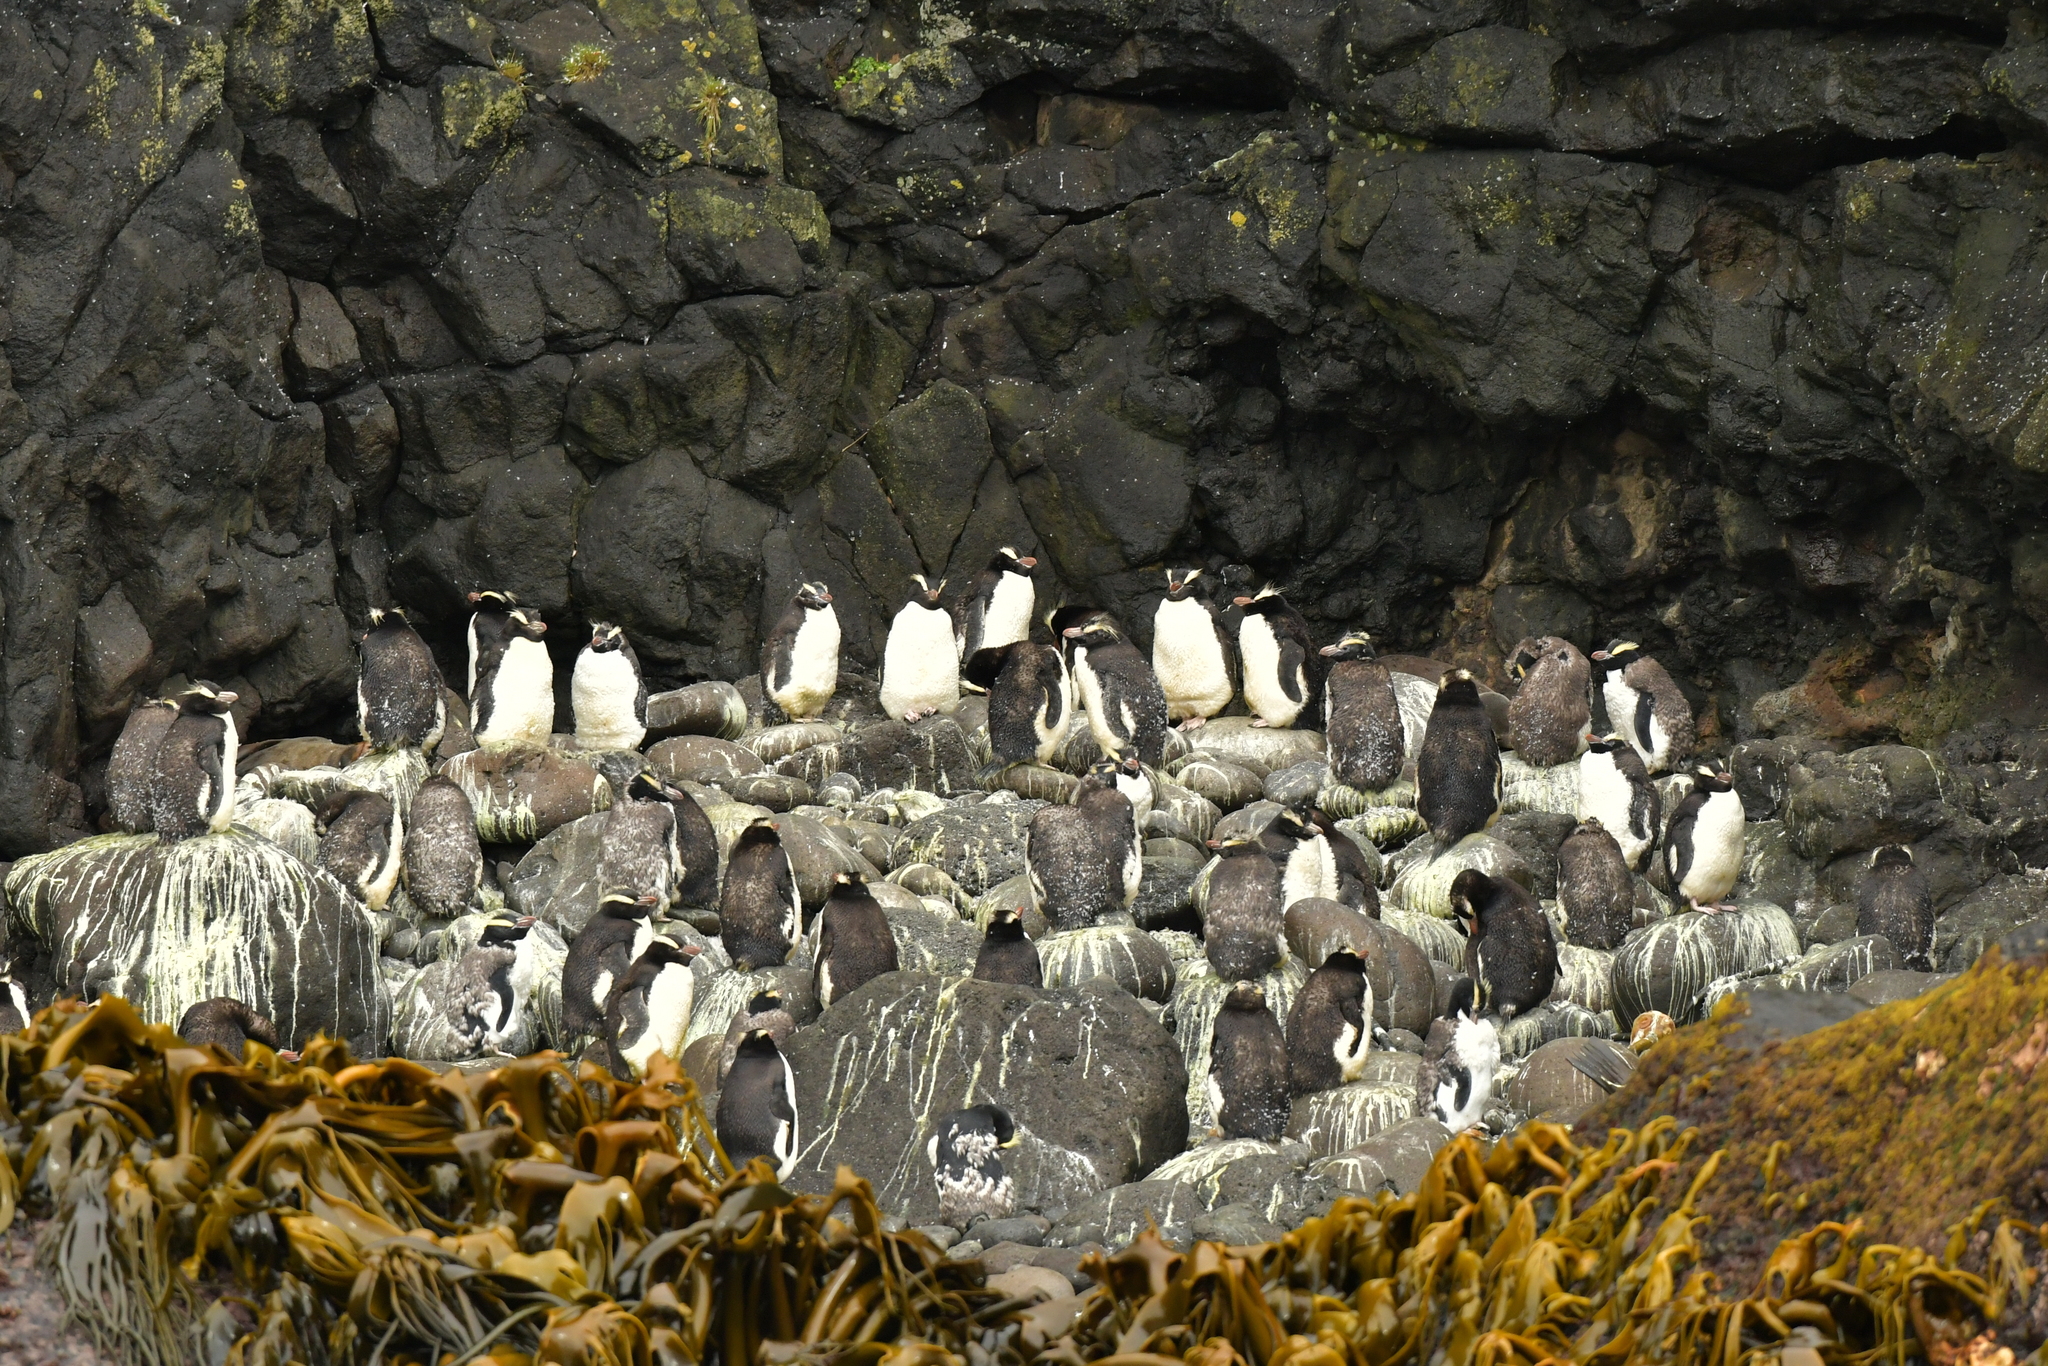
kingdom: Animalia
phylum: Chordata
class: Aves
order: Sphenisciformes
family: Spheniscidae
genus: Eudyptes
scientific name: Eudyptes sclateri
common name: Erect-crested penguin
